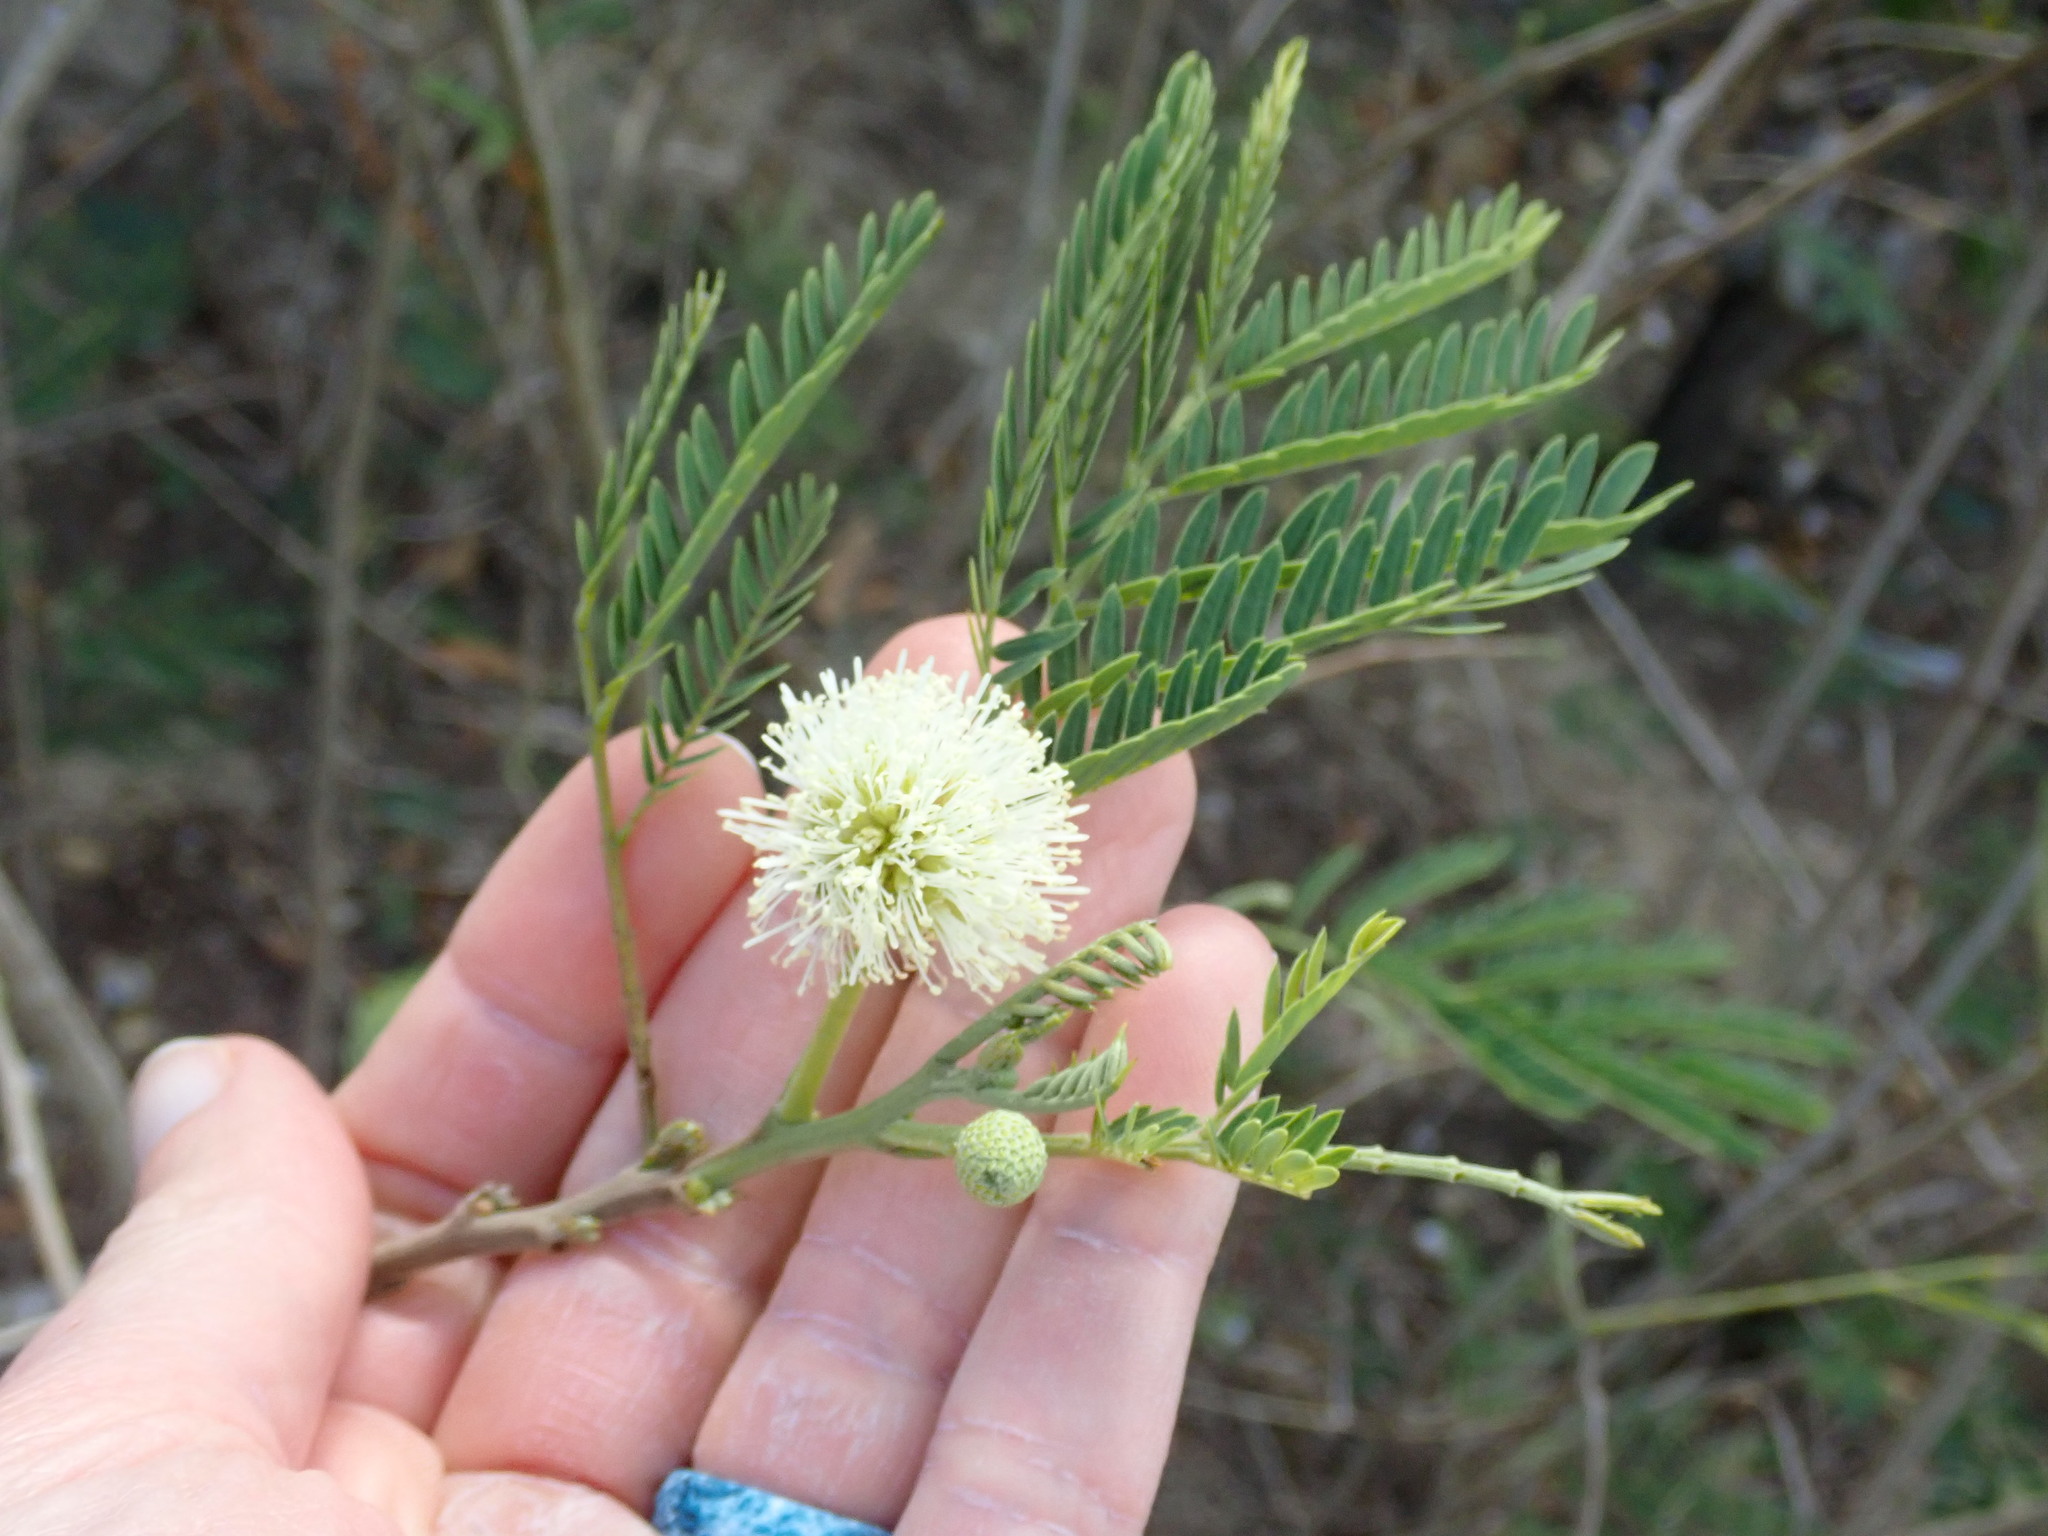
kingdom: Plantae
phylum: Tracheophyta
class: Magnoliopsida
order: Fabales
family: Fabaceae
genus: Leucaena
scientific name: Leucaena leucocephala
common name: White leadtree
